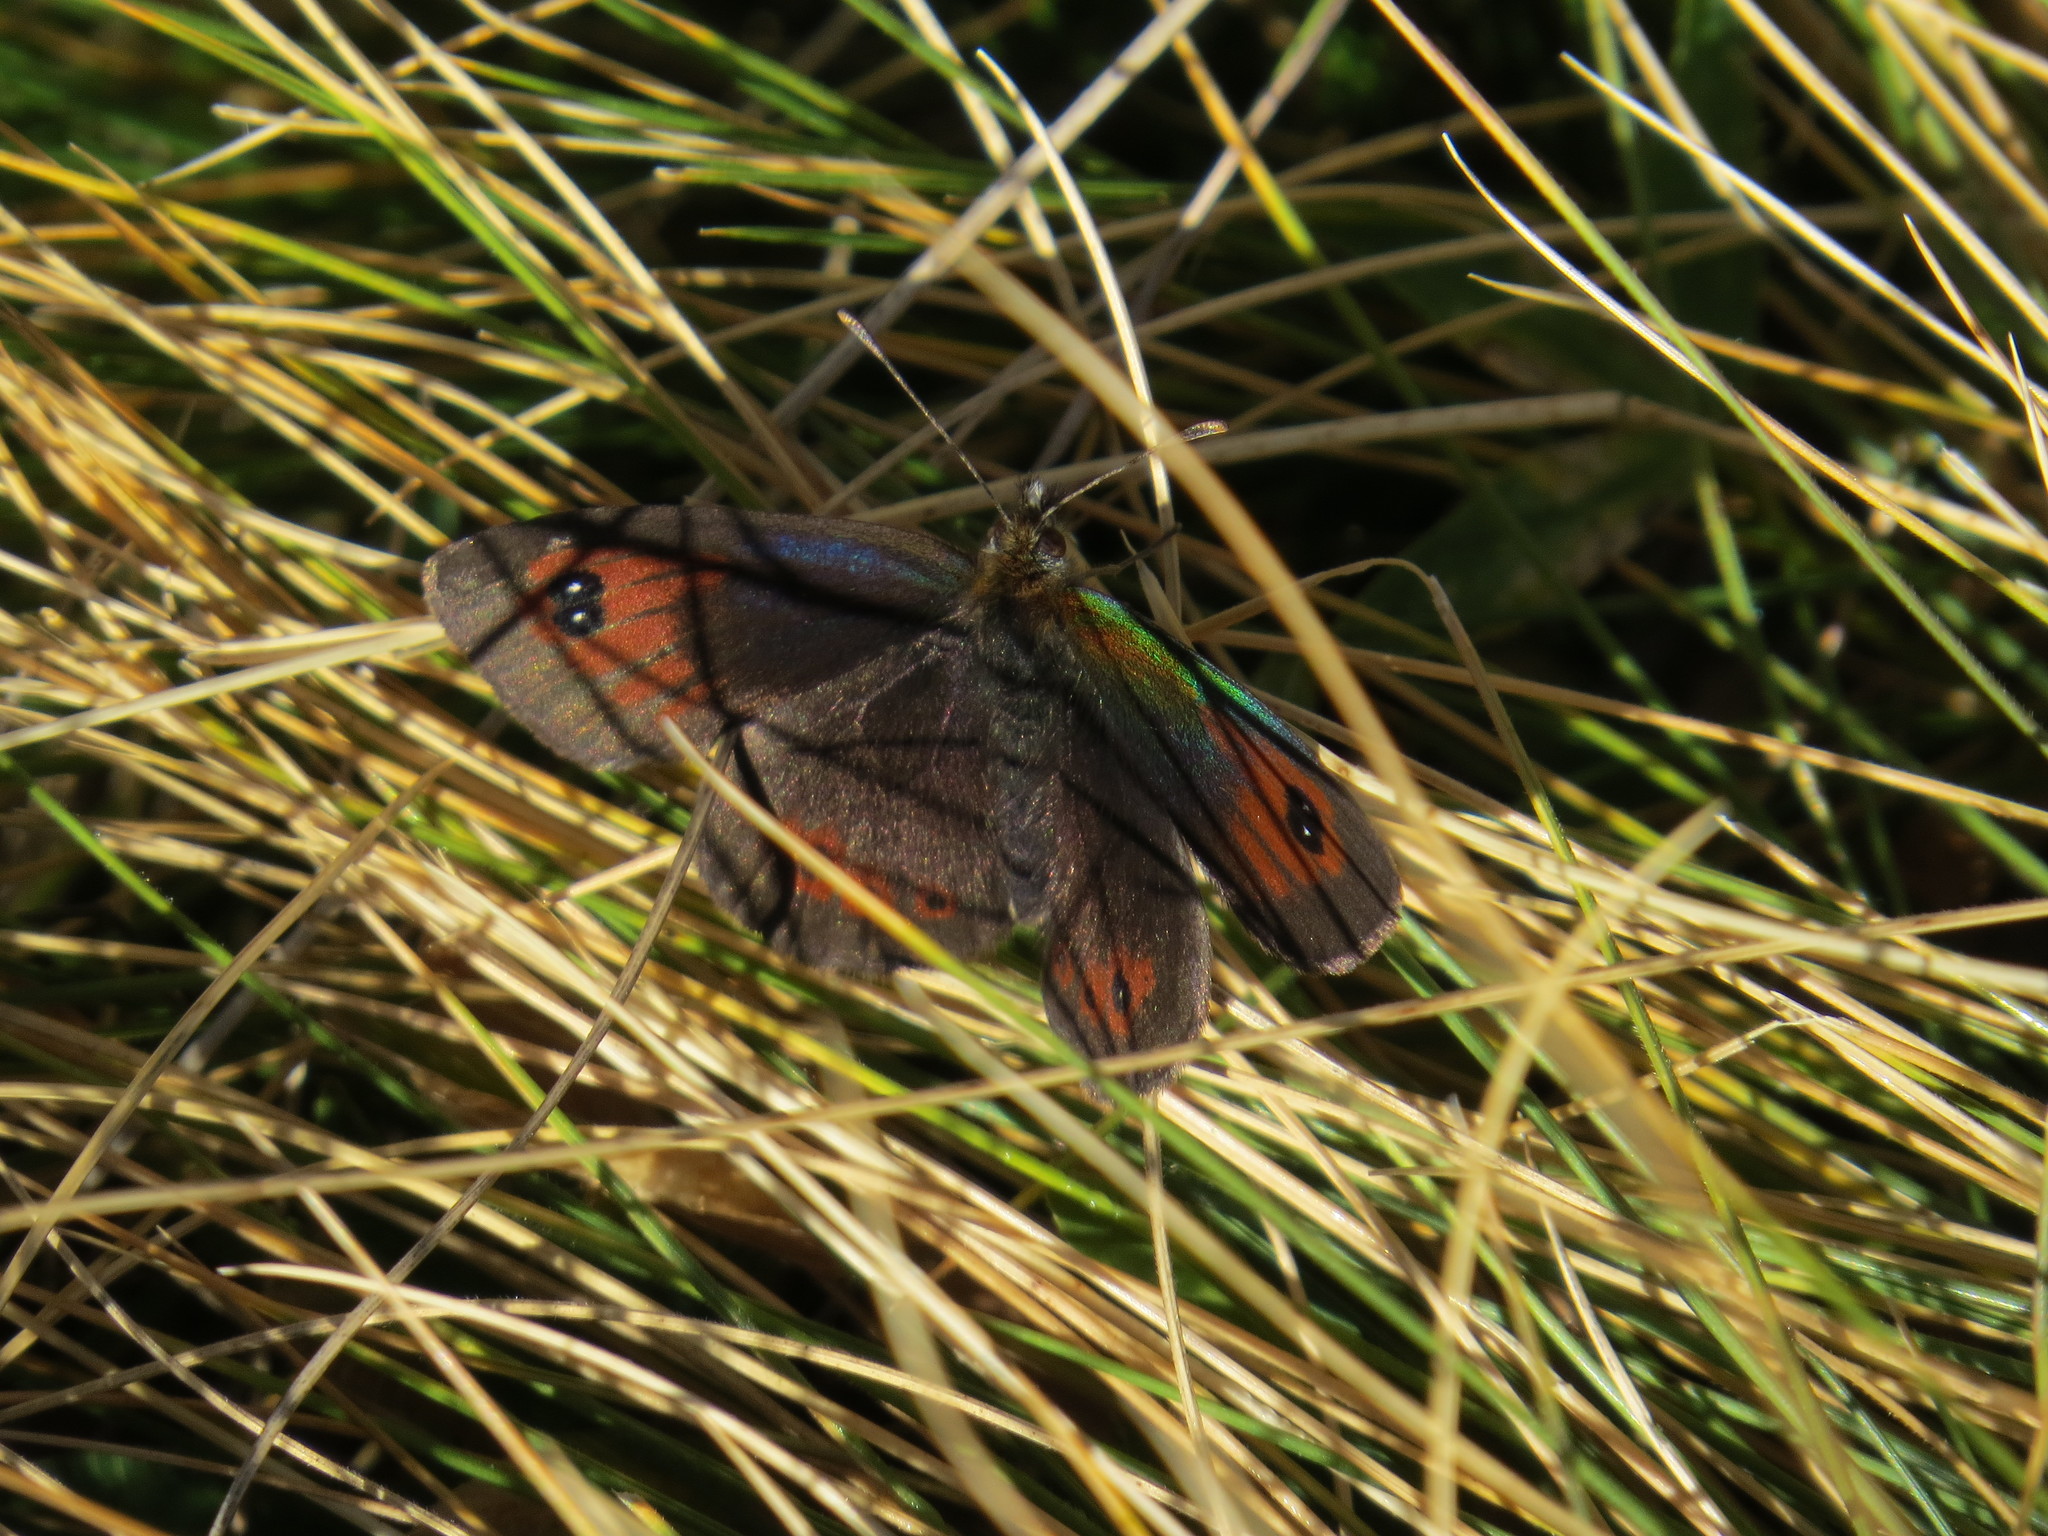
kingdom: Animalia
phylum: Arthropoda
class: Insecta
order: Lepidoptera
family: Nymphalidae
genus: Erebia
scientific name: Erebia cassioides
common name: Common brassy ringlet
